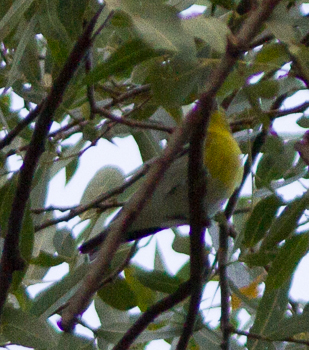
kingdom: Animalia
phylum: Chordata
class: Aves
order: Passeriformes
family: Vireonidae
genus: Vireo
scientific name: Vireo flavifrons
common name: Yellow-throated vireo
